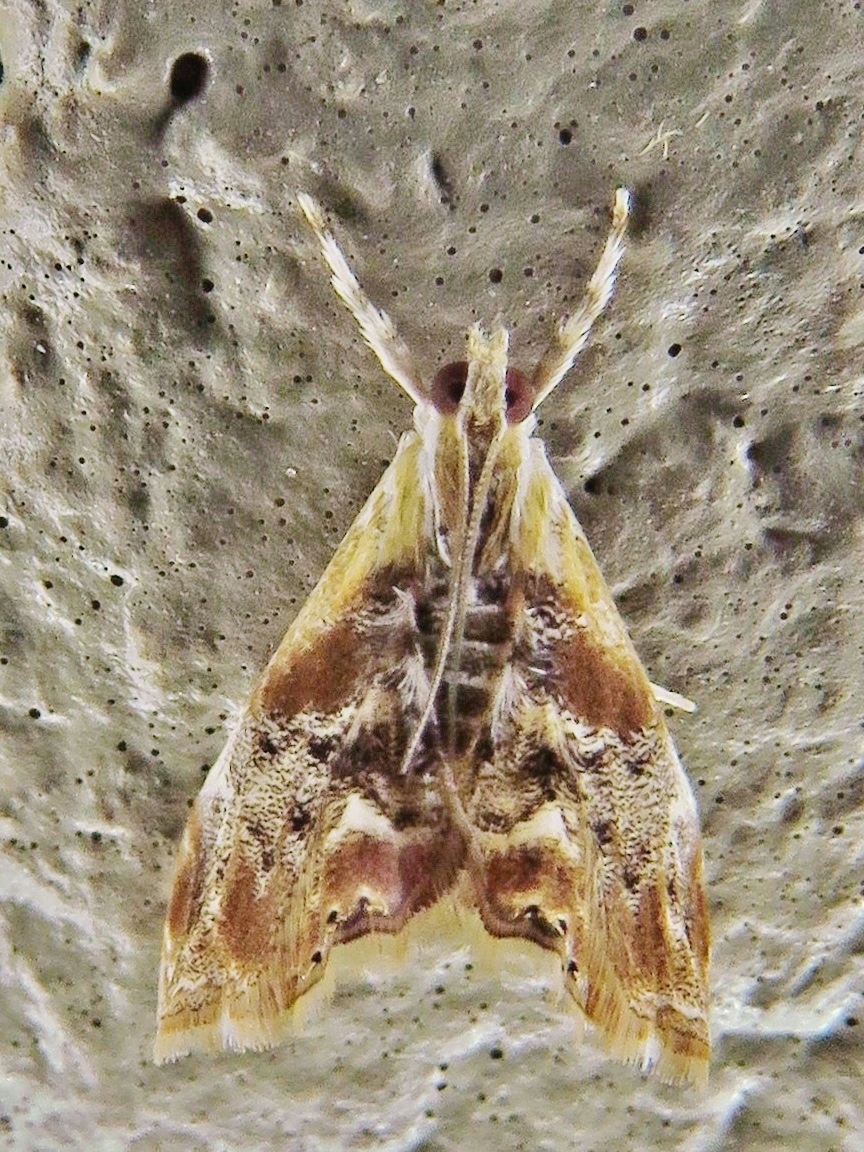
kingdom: Animalia
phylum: Arthropoda
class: Insecta
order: Lepidoptera
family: Crambidae
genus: Dicymolomia
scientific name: Dicymolomia julianalis
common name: Julia's dicymolomia moth
